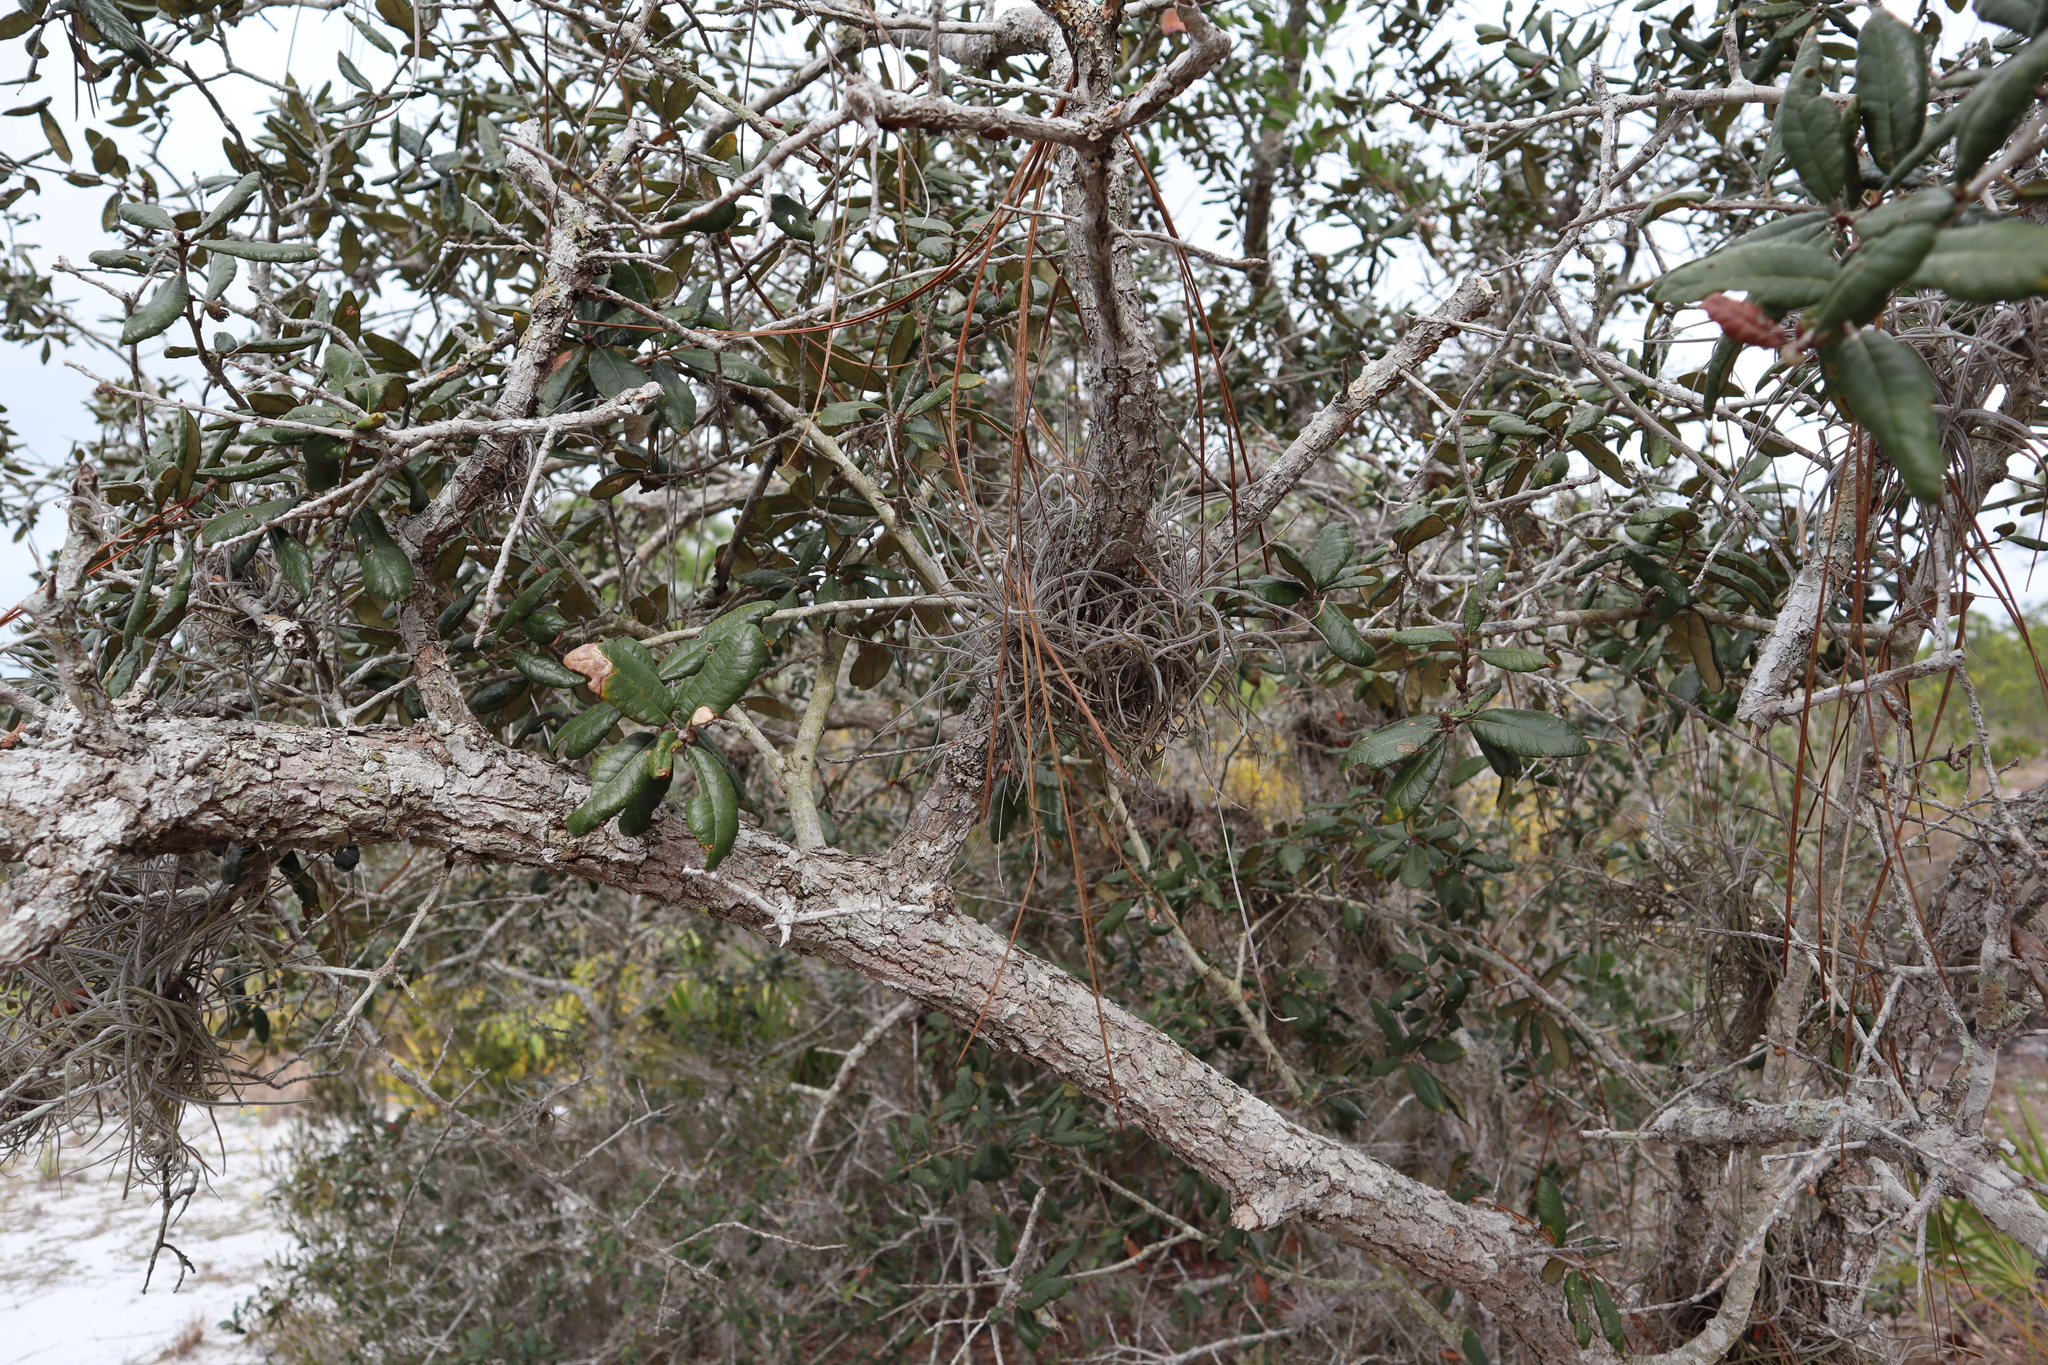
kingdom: Plantae
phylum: Tracheophyta
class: Magnoliopsida
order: Fagales
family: Fagaceae
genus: Quercus
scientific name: Quercus geminata
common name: Sand live oak
